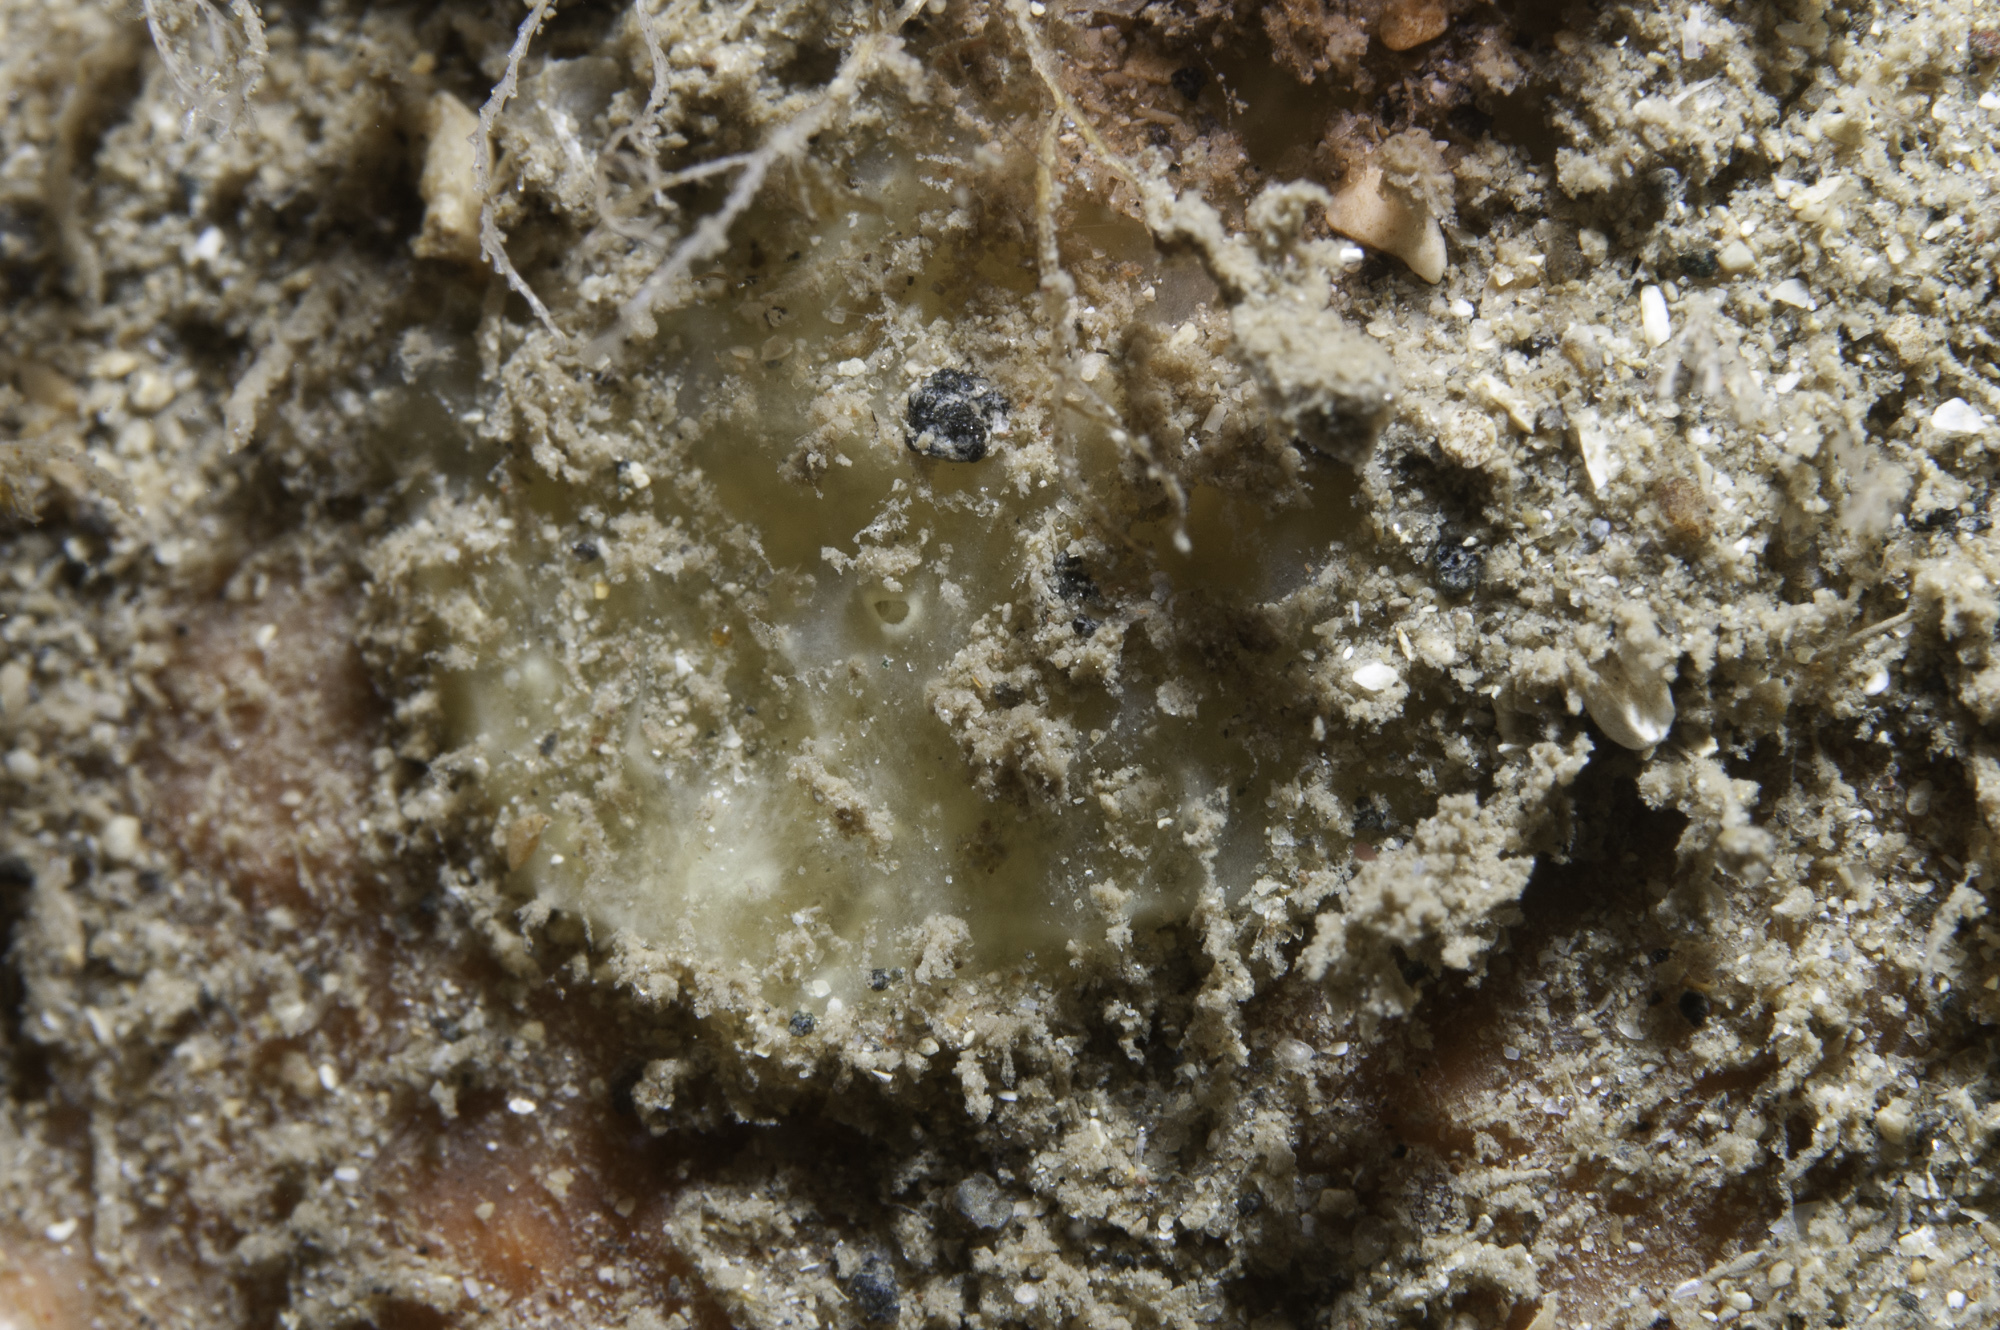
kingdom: Animalia
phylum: Porifera
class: Demospongiae
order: Axinellida
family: Stelligeridae
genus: Paratimea
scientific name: Paratimea loennbergi
